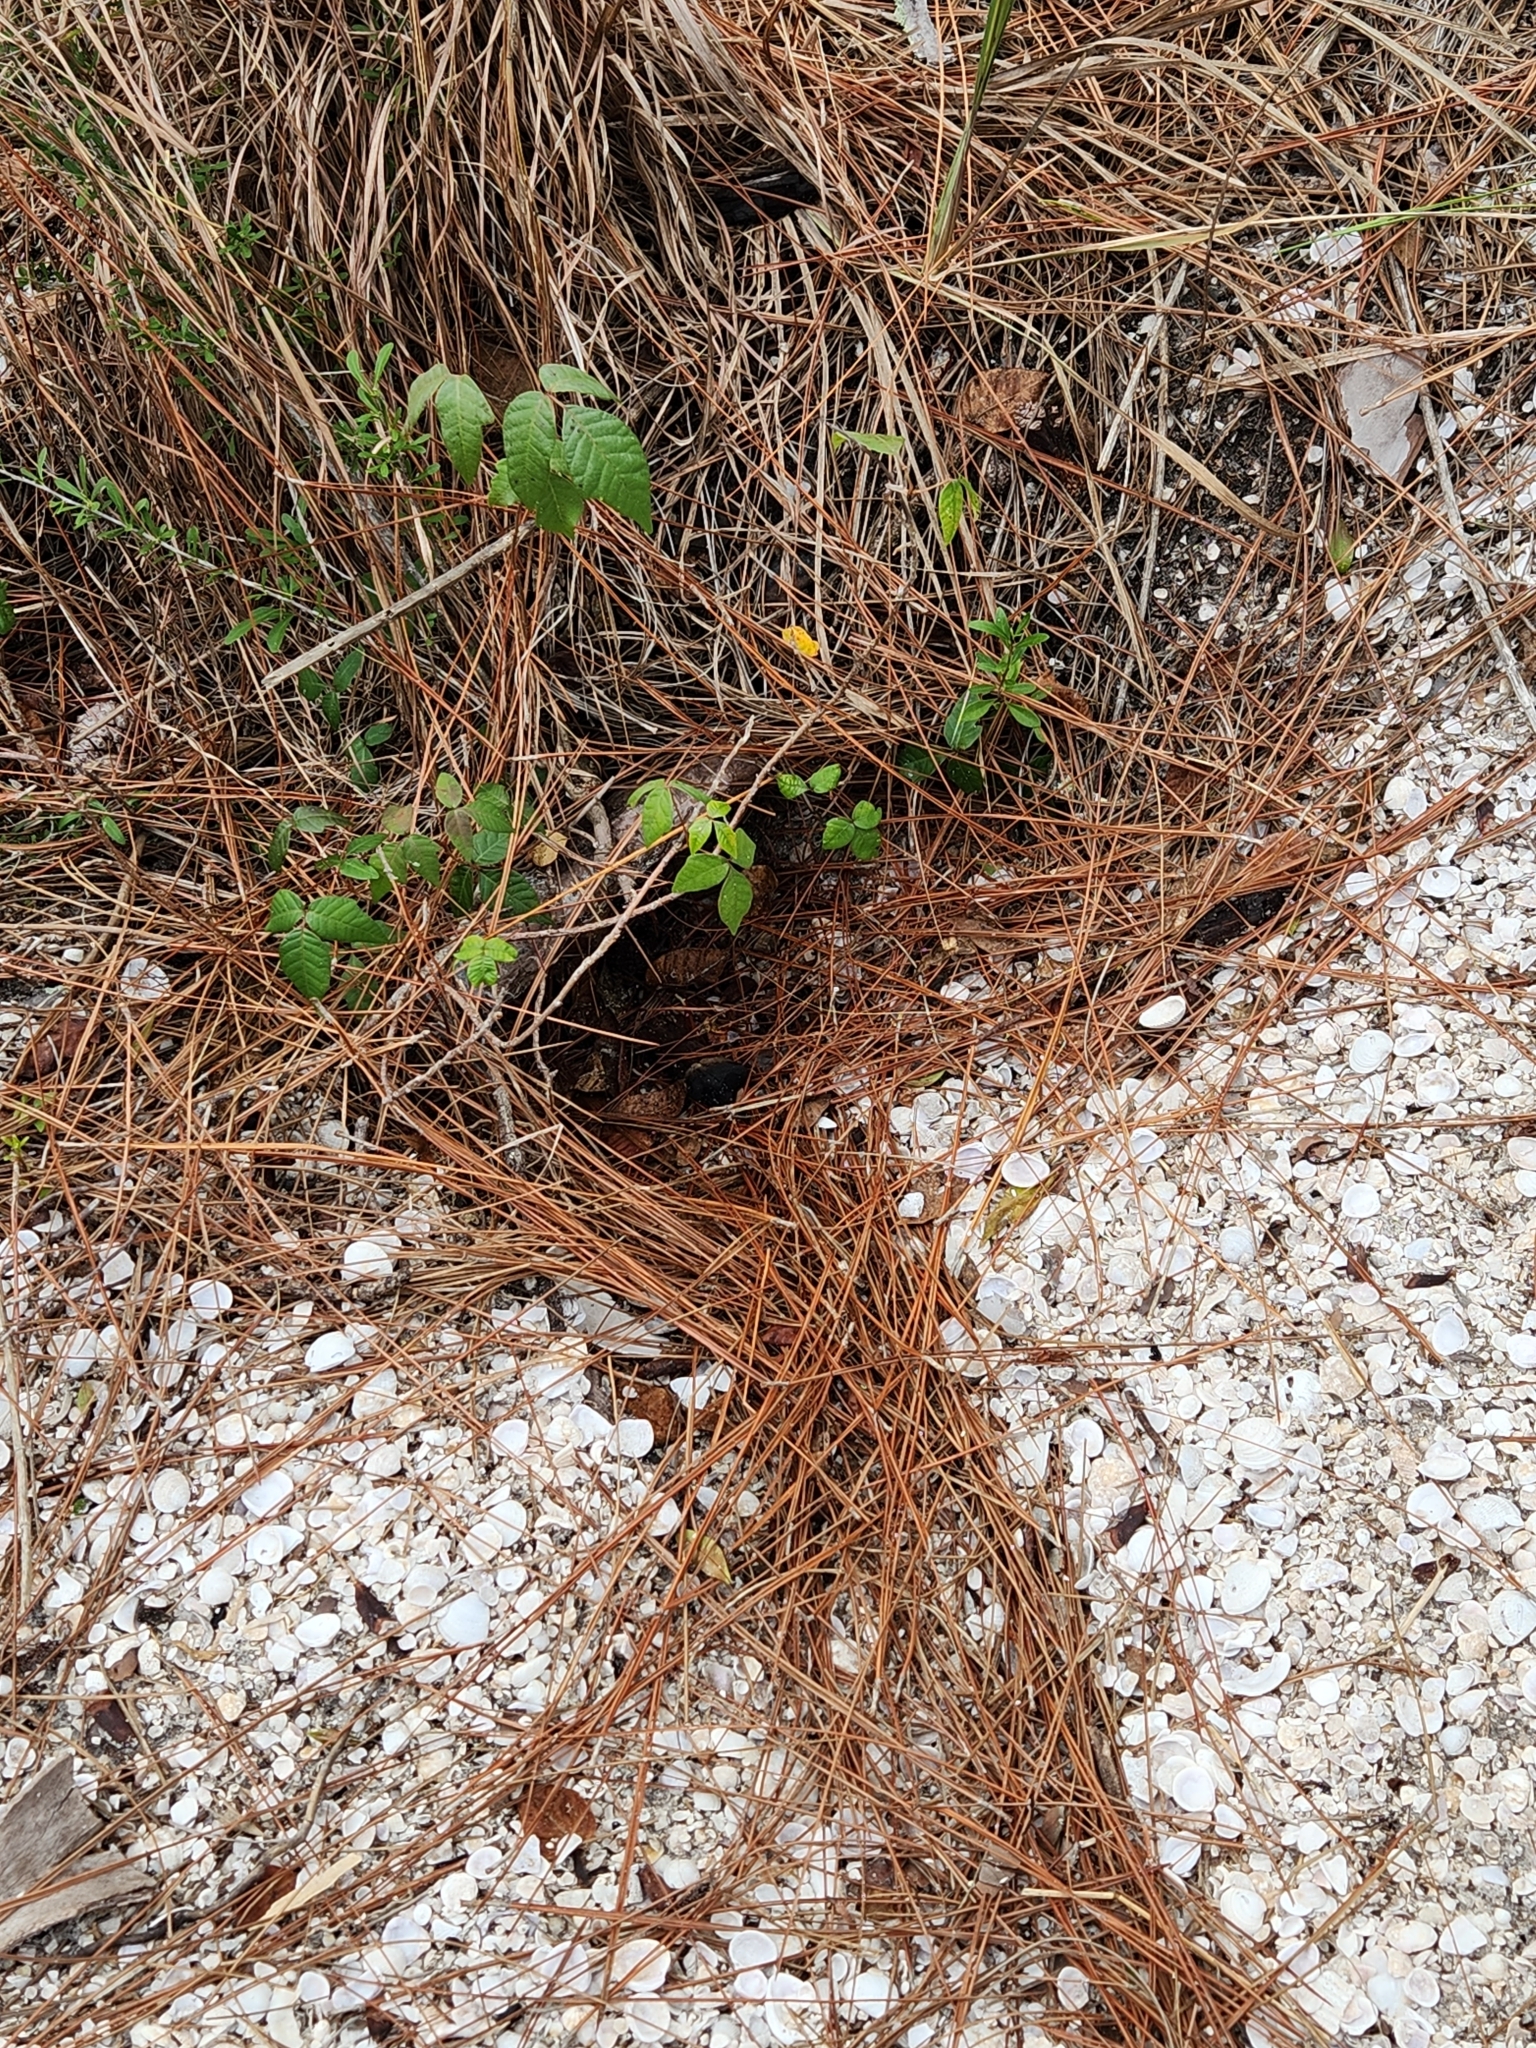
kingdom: Animalia
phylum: Chordata
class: Testudines
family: Testudinidae
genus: Gopherus
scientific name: Gopherus polyphemus
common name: Florida gopher tortoise
